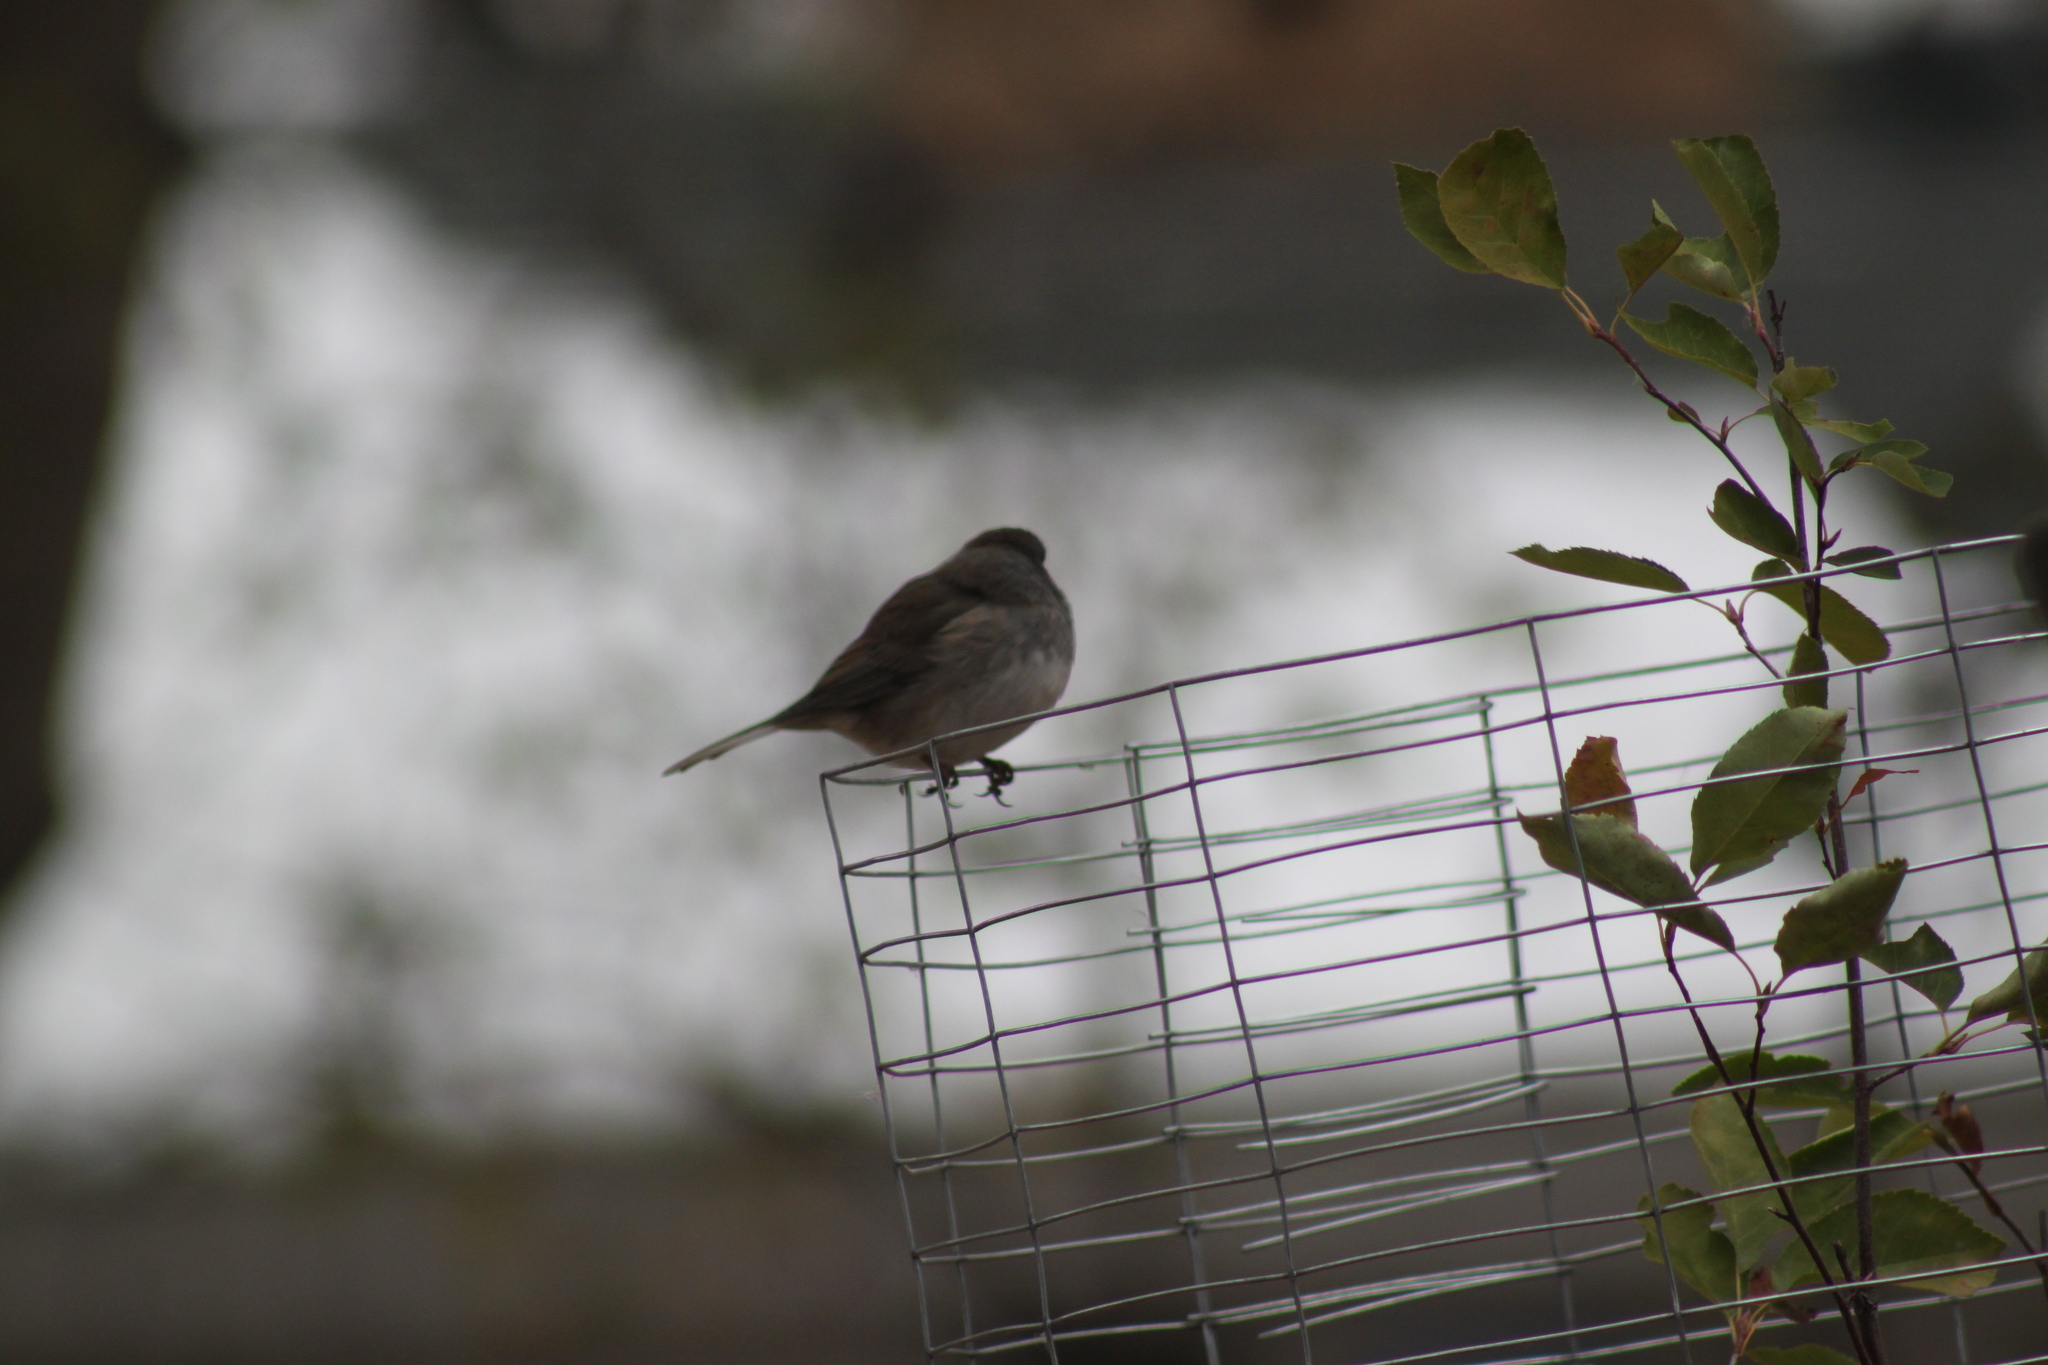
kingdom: Animalia
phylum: Chordata
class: Aves
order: Passeriformes
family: Passerellidae
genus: Junco
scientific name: Junco hyemalis
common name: Dark-eyed junco
